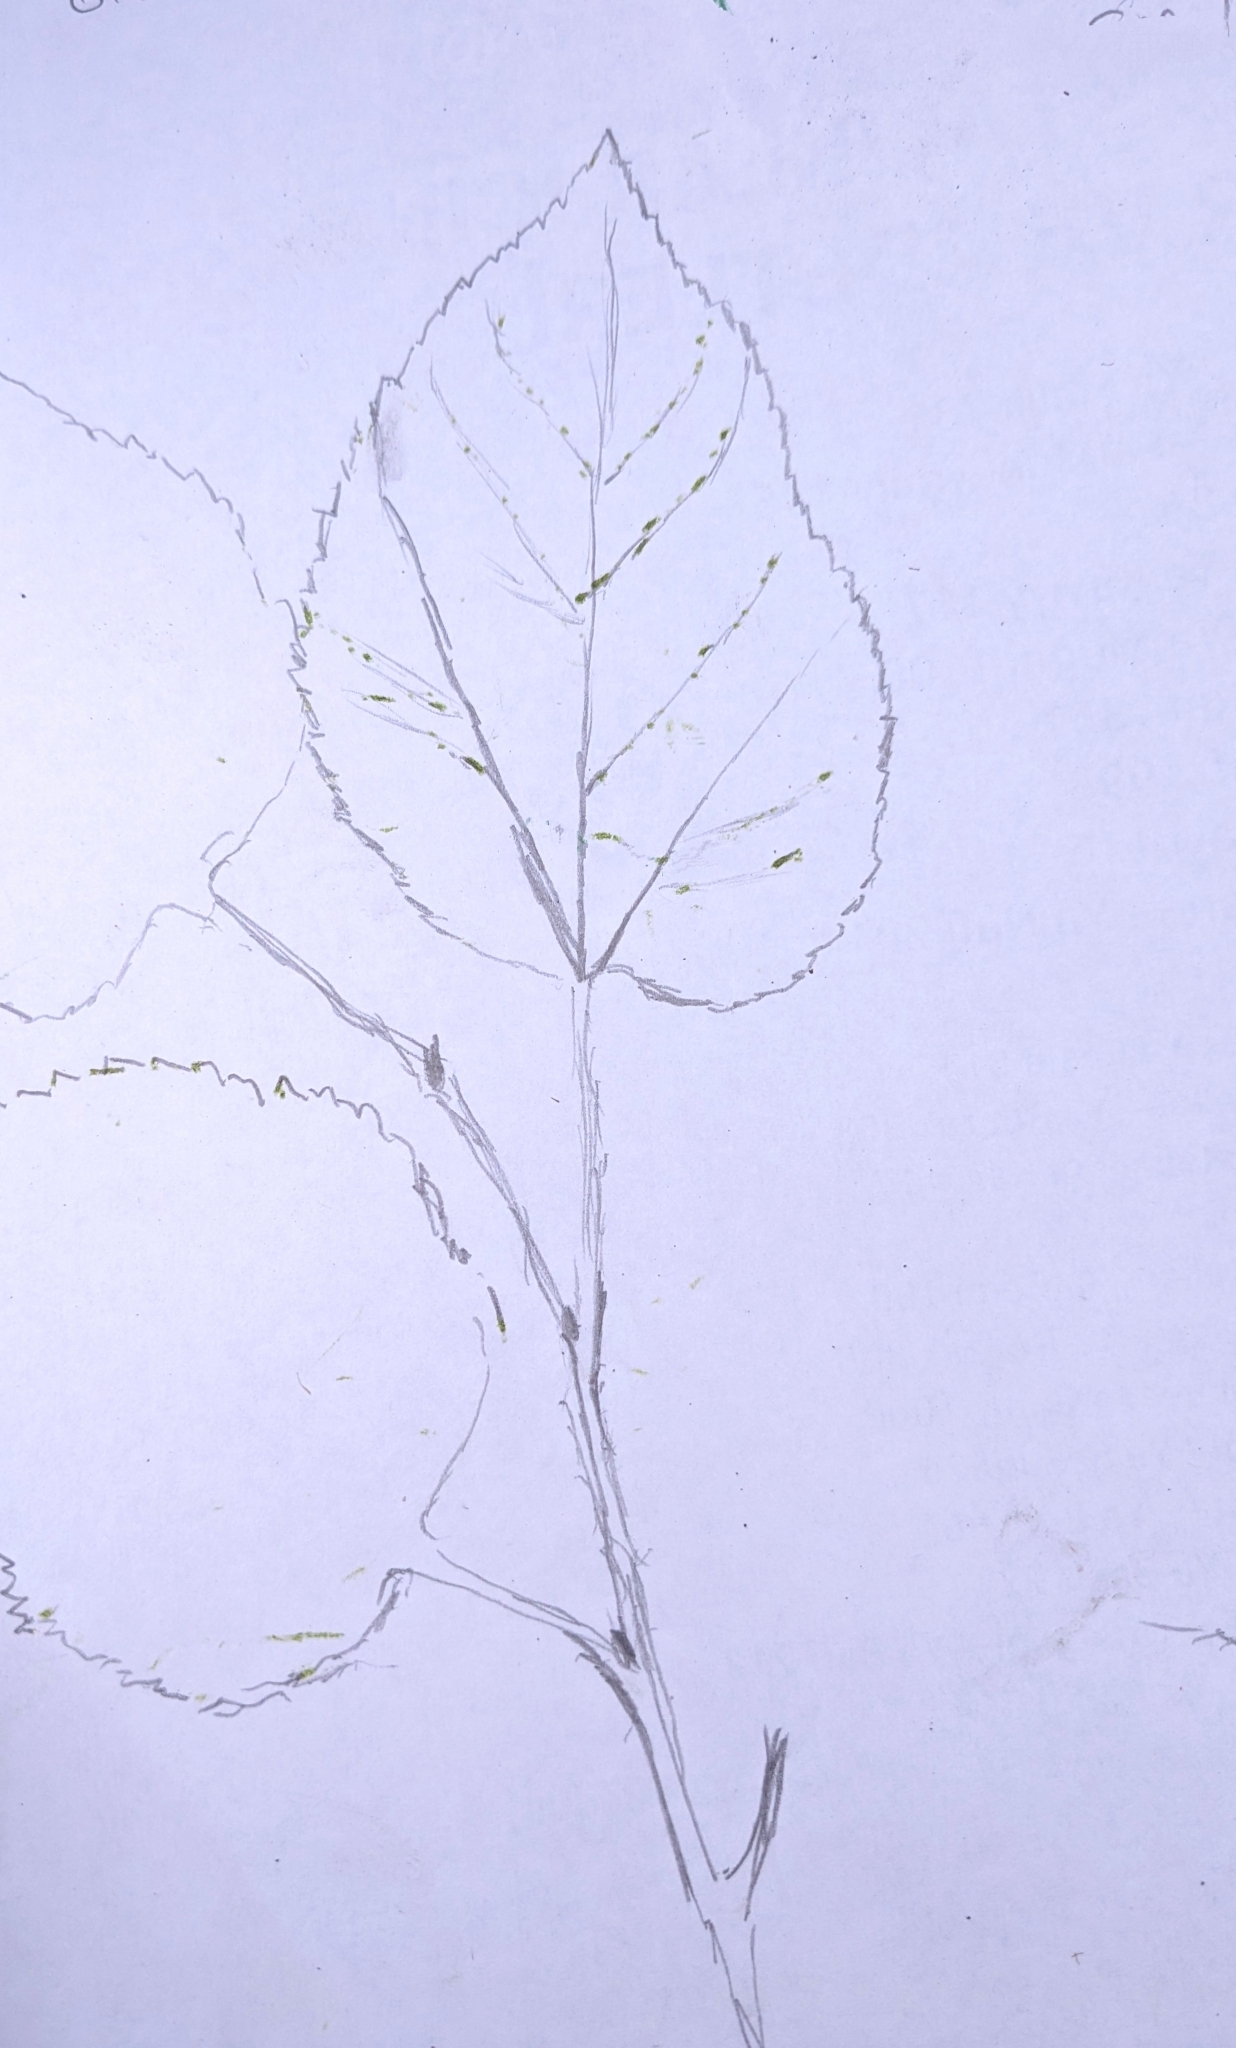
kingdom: Plantae
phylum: Tracheophyta
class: Magnoliopsida
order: Rosales
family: Moraceae
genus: Morus
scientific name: Morus alba
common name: White mulberry
